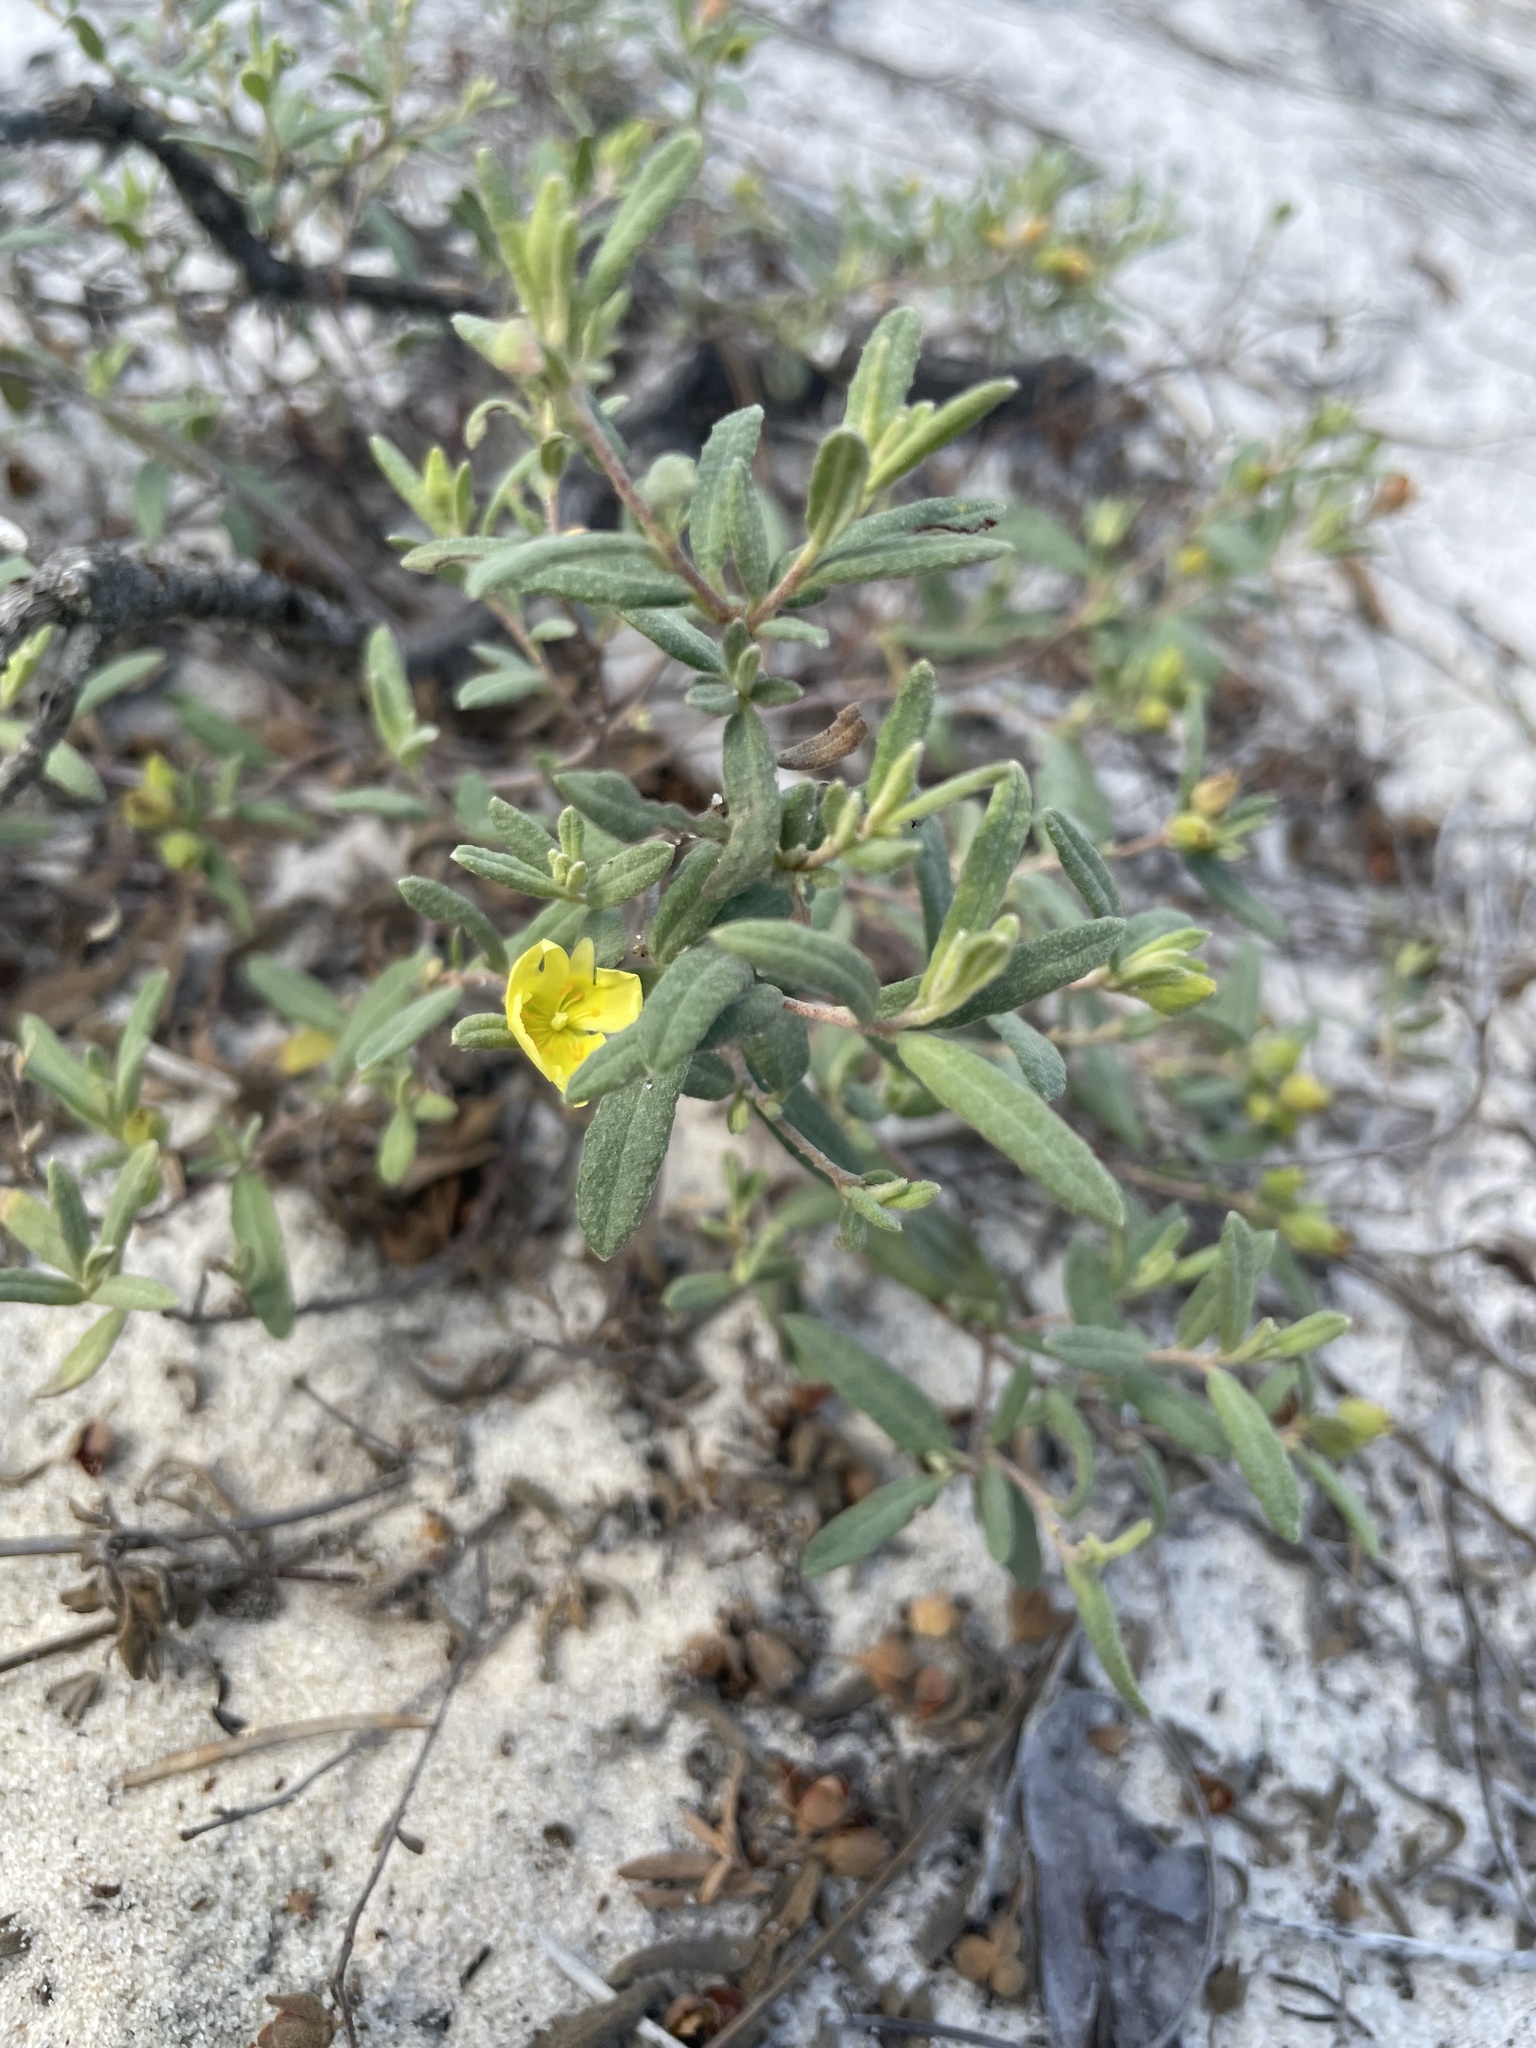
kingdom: Plantae
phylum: Tracheophyta
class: Magnoliopsida
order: Malvales
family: Cistaceae
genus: Crocanthemum
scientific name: Crocanthemum arenicola
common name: Gulf coast frostweed
